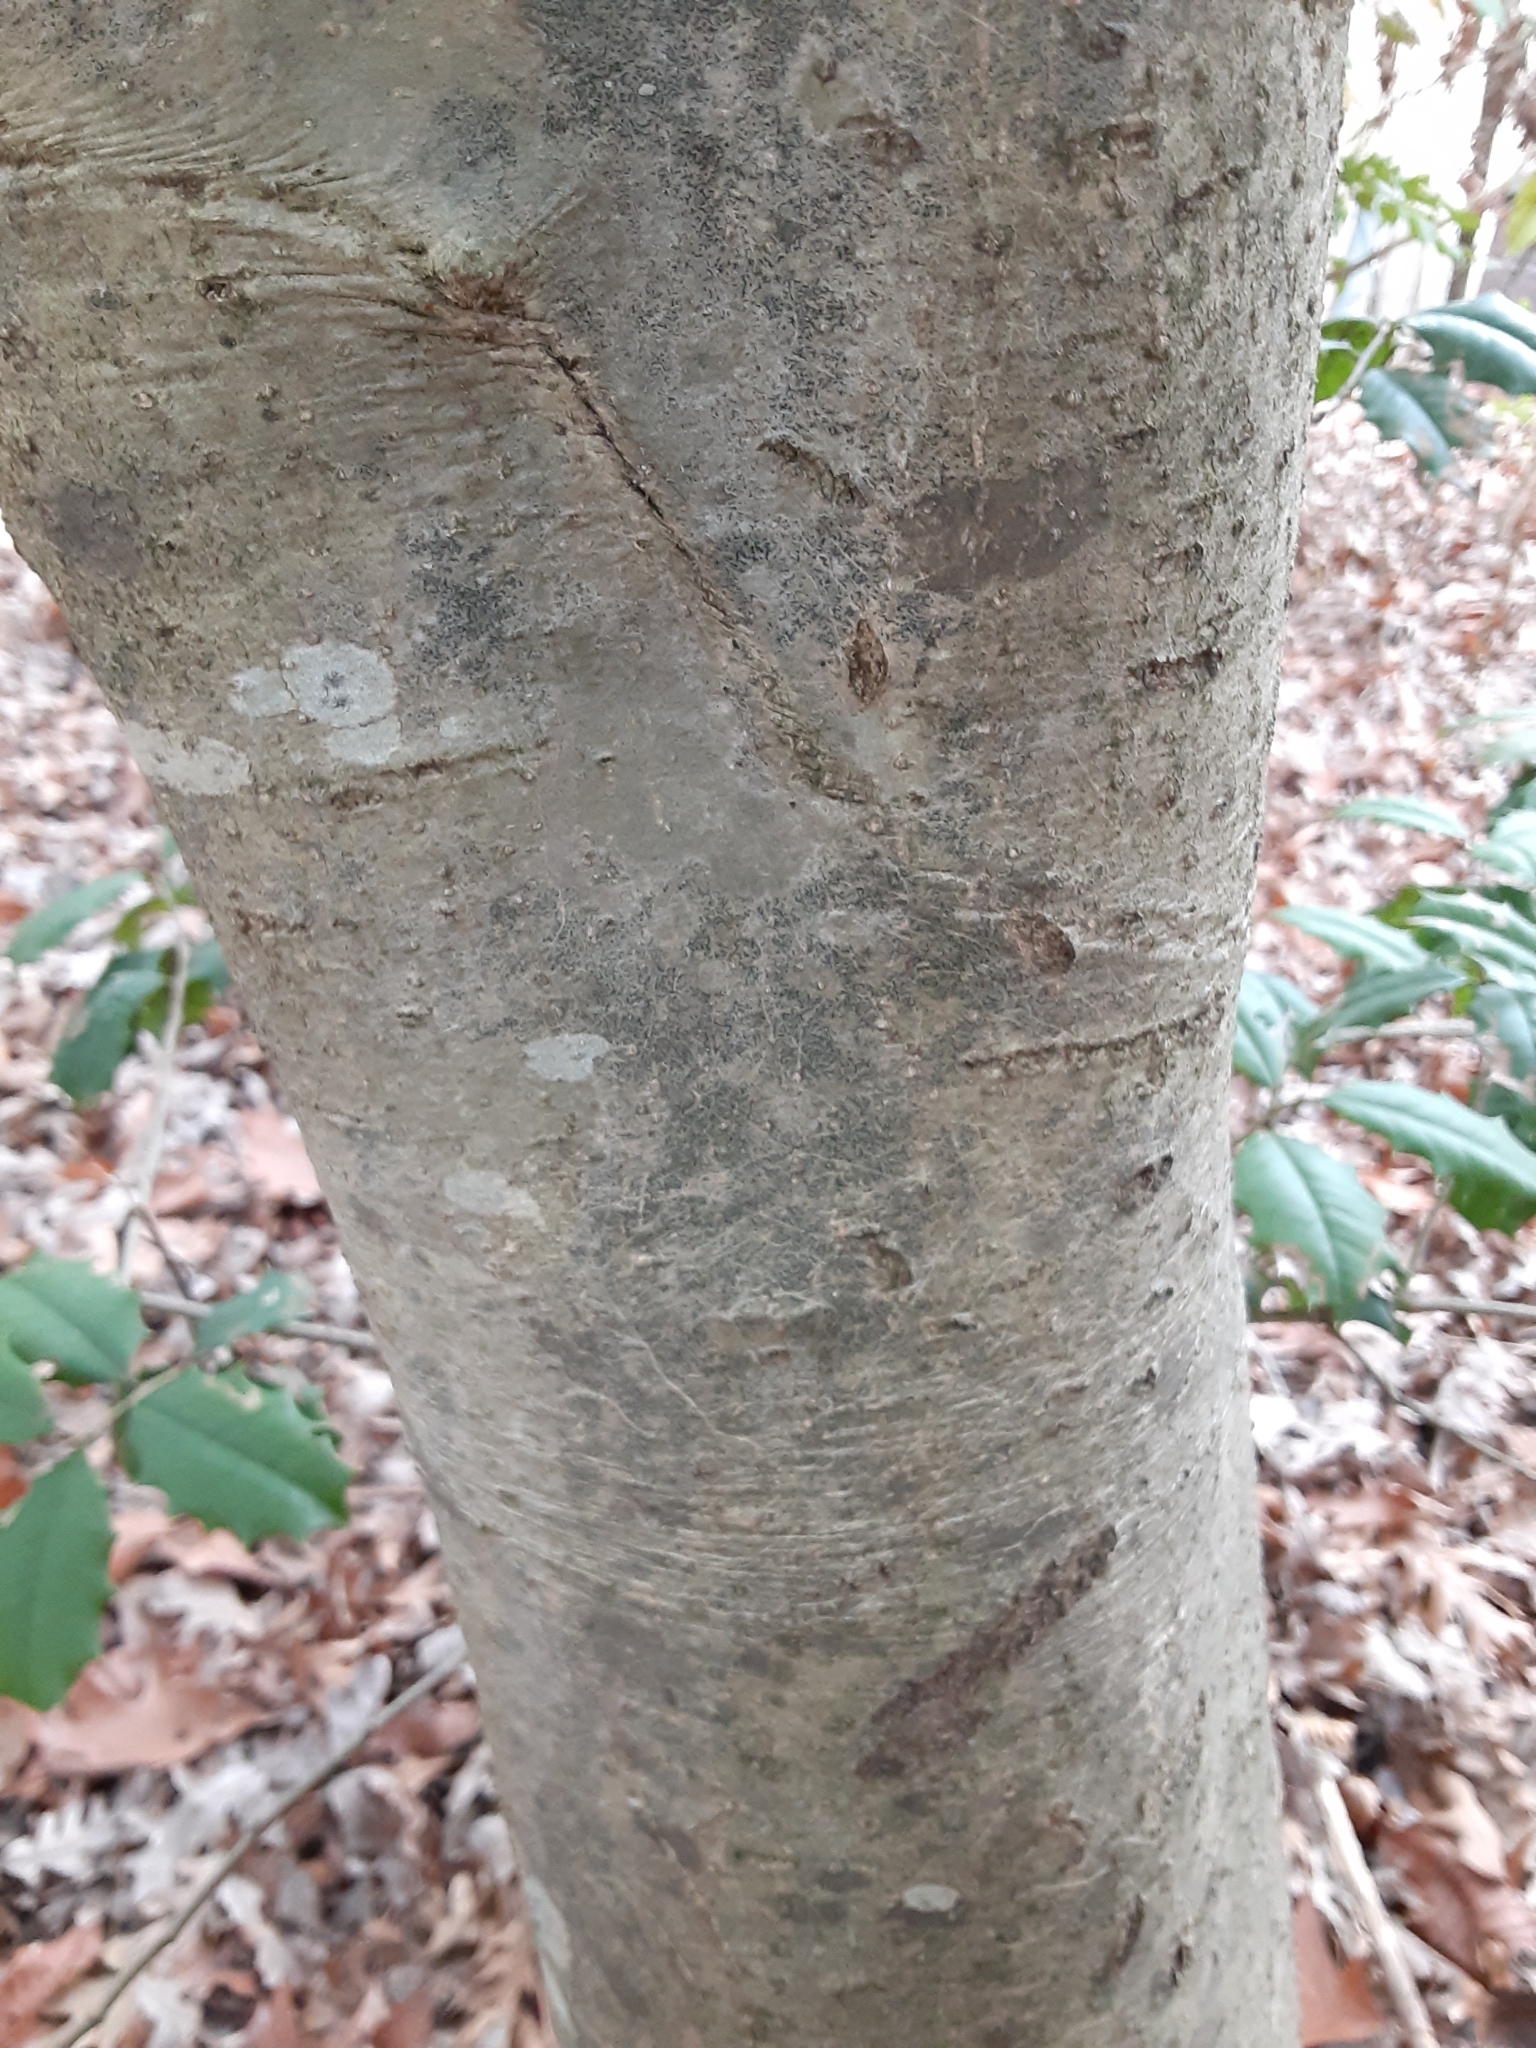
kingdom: Plantae
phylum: Tracheophyta
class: Magnoliopsida
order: Aquifoliales
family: Aquifoliaceae
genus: Ilex
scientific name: Ilex opaca
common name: American holly
